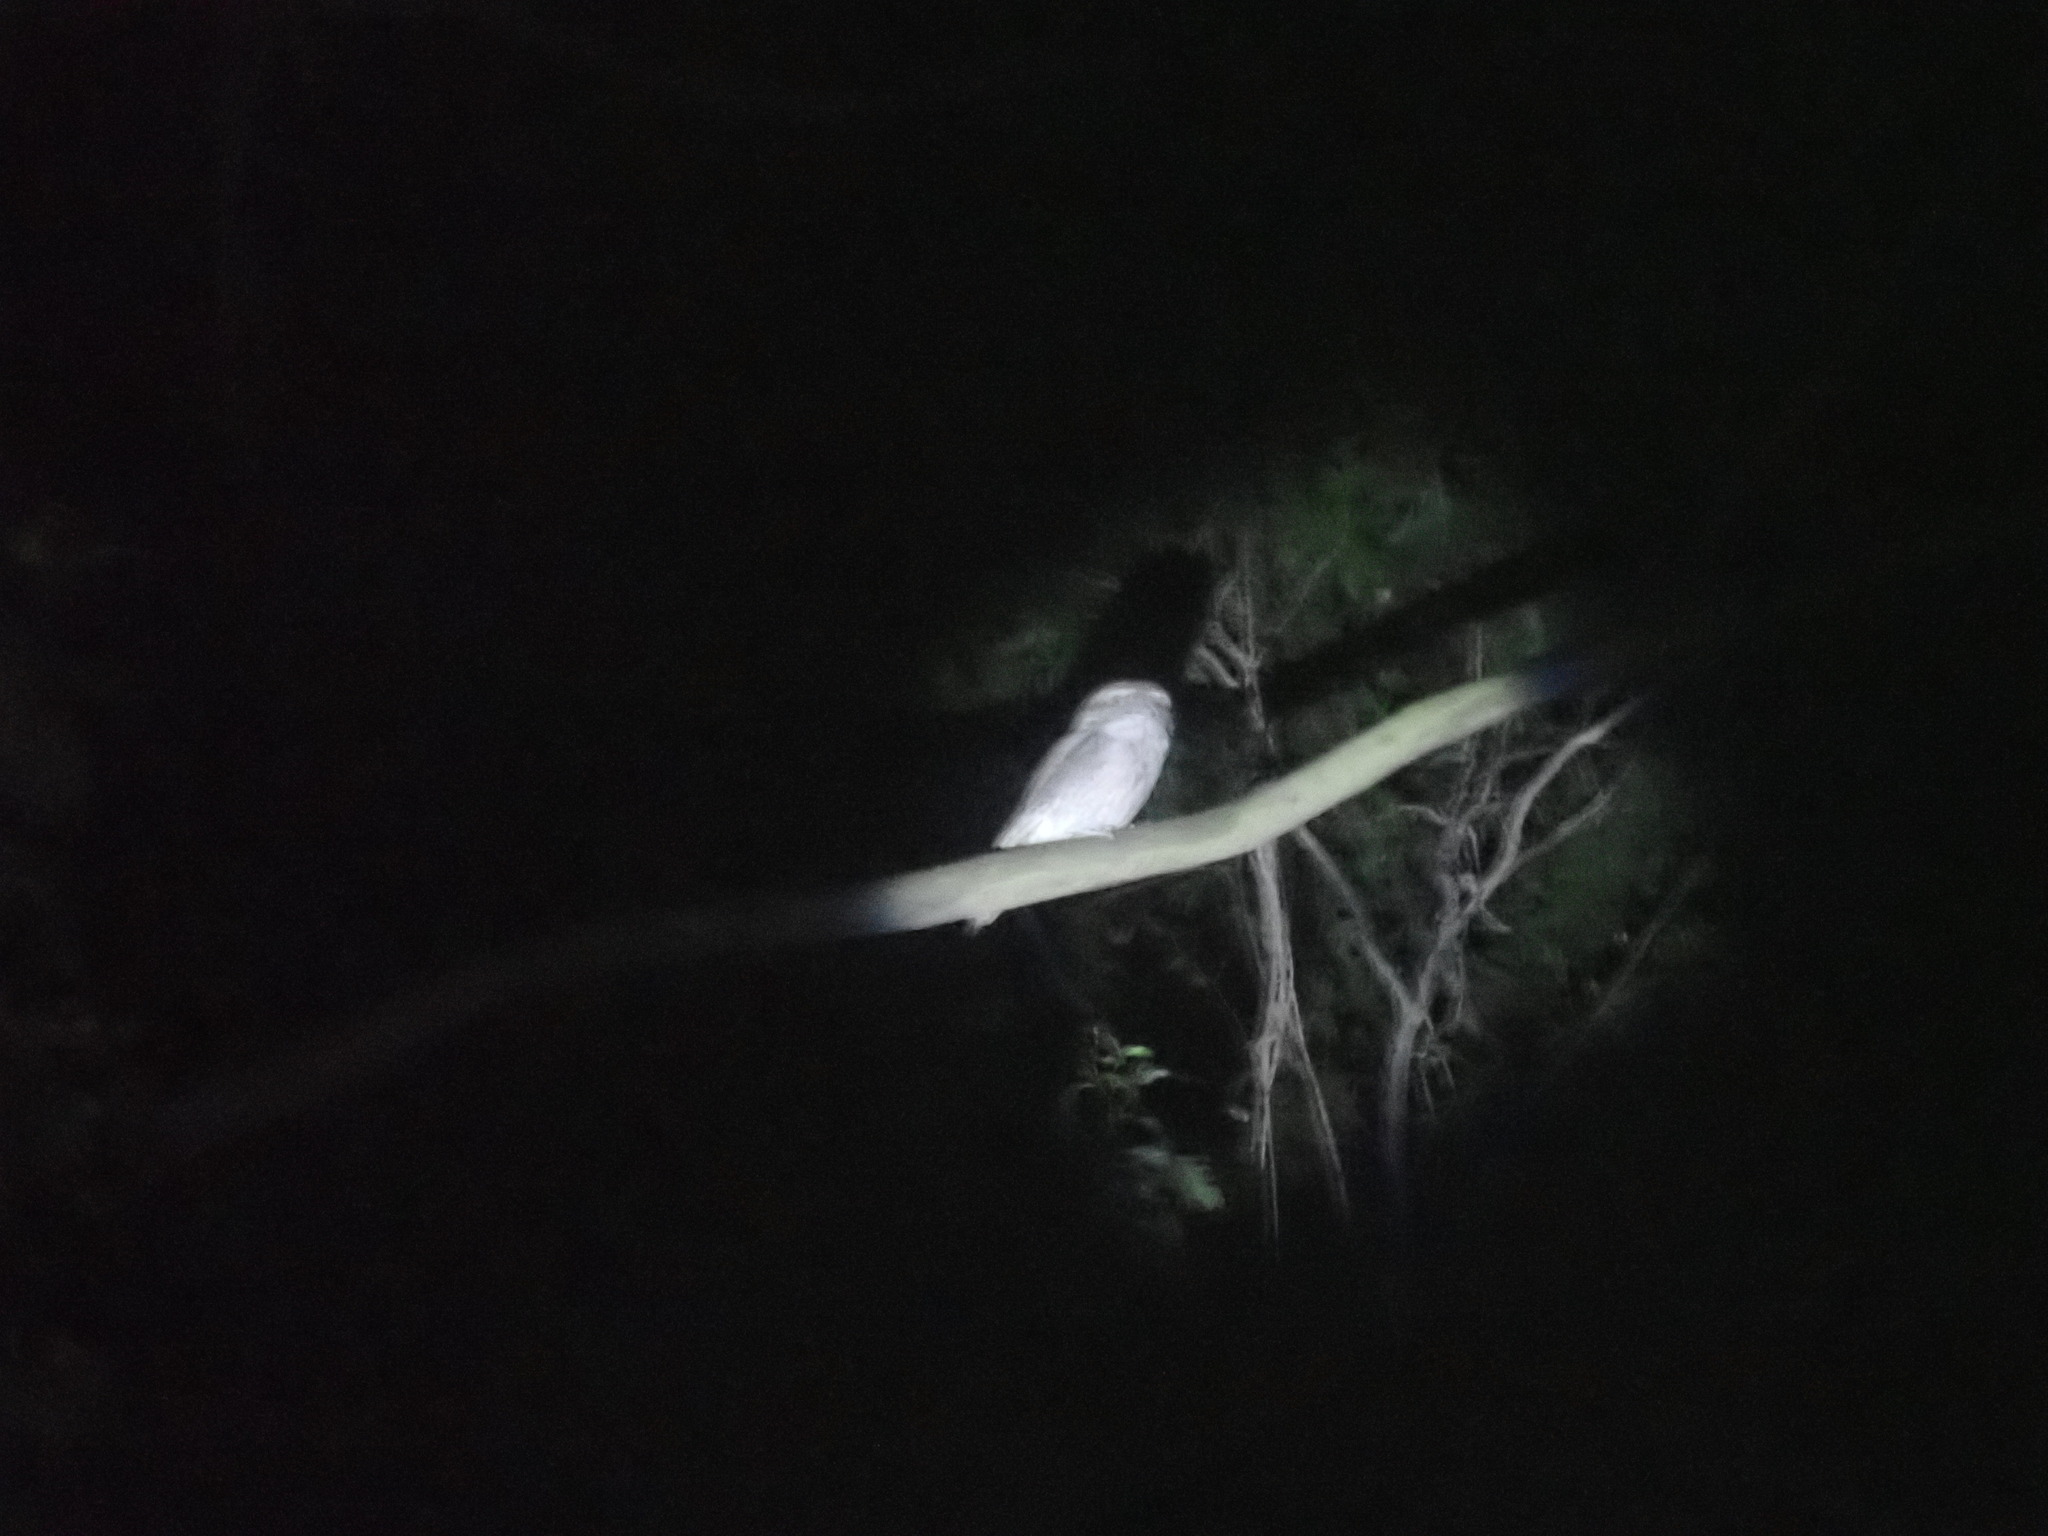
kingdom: Animalia
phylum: Chordata
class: Aves
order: Caprimulgiformes
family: Podargidae
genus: Podargus
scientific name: Podargus strigoides
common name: Tawny frogmouth
